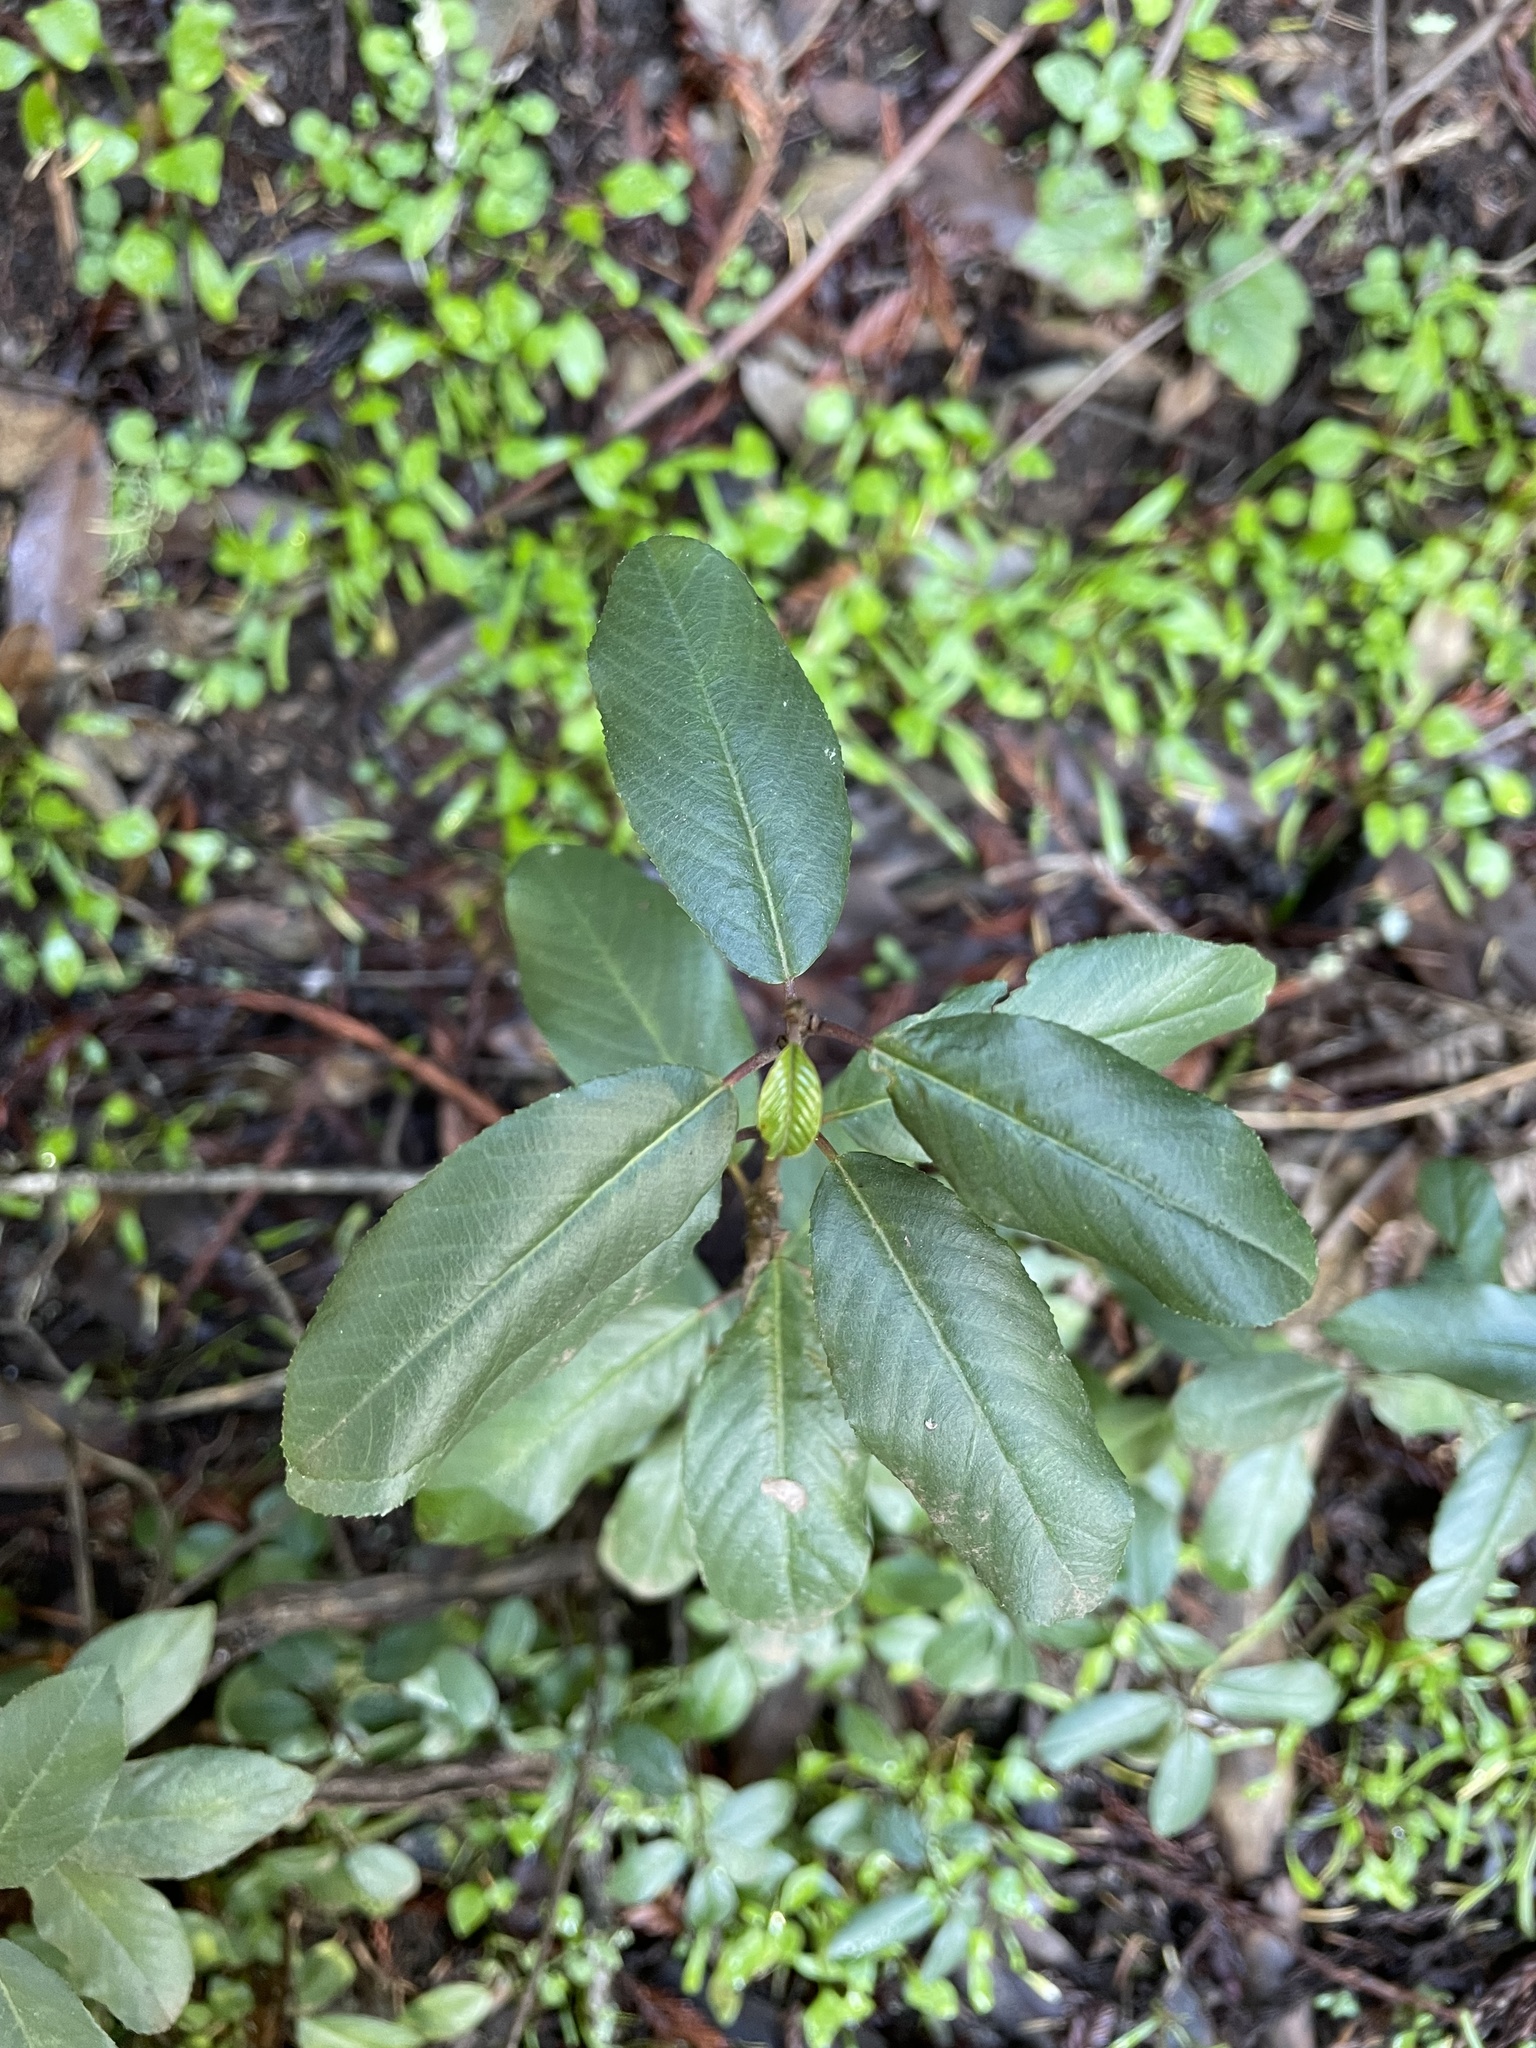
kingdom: Plantae
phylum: Tracheophyta
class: Magnoliopsida
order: Rosales
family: Rhamnaceae
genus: Frangula
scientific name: Frangula californica
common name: California buckthorn
